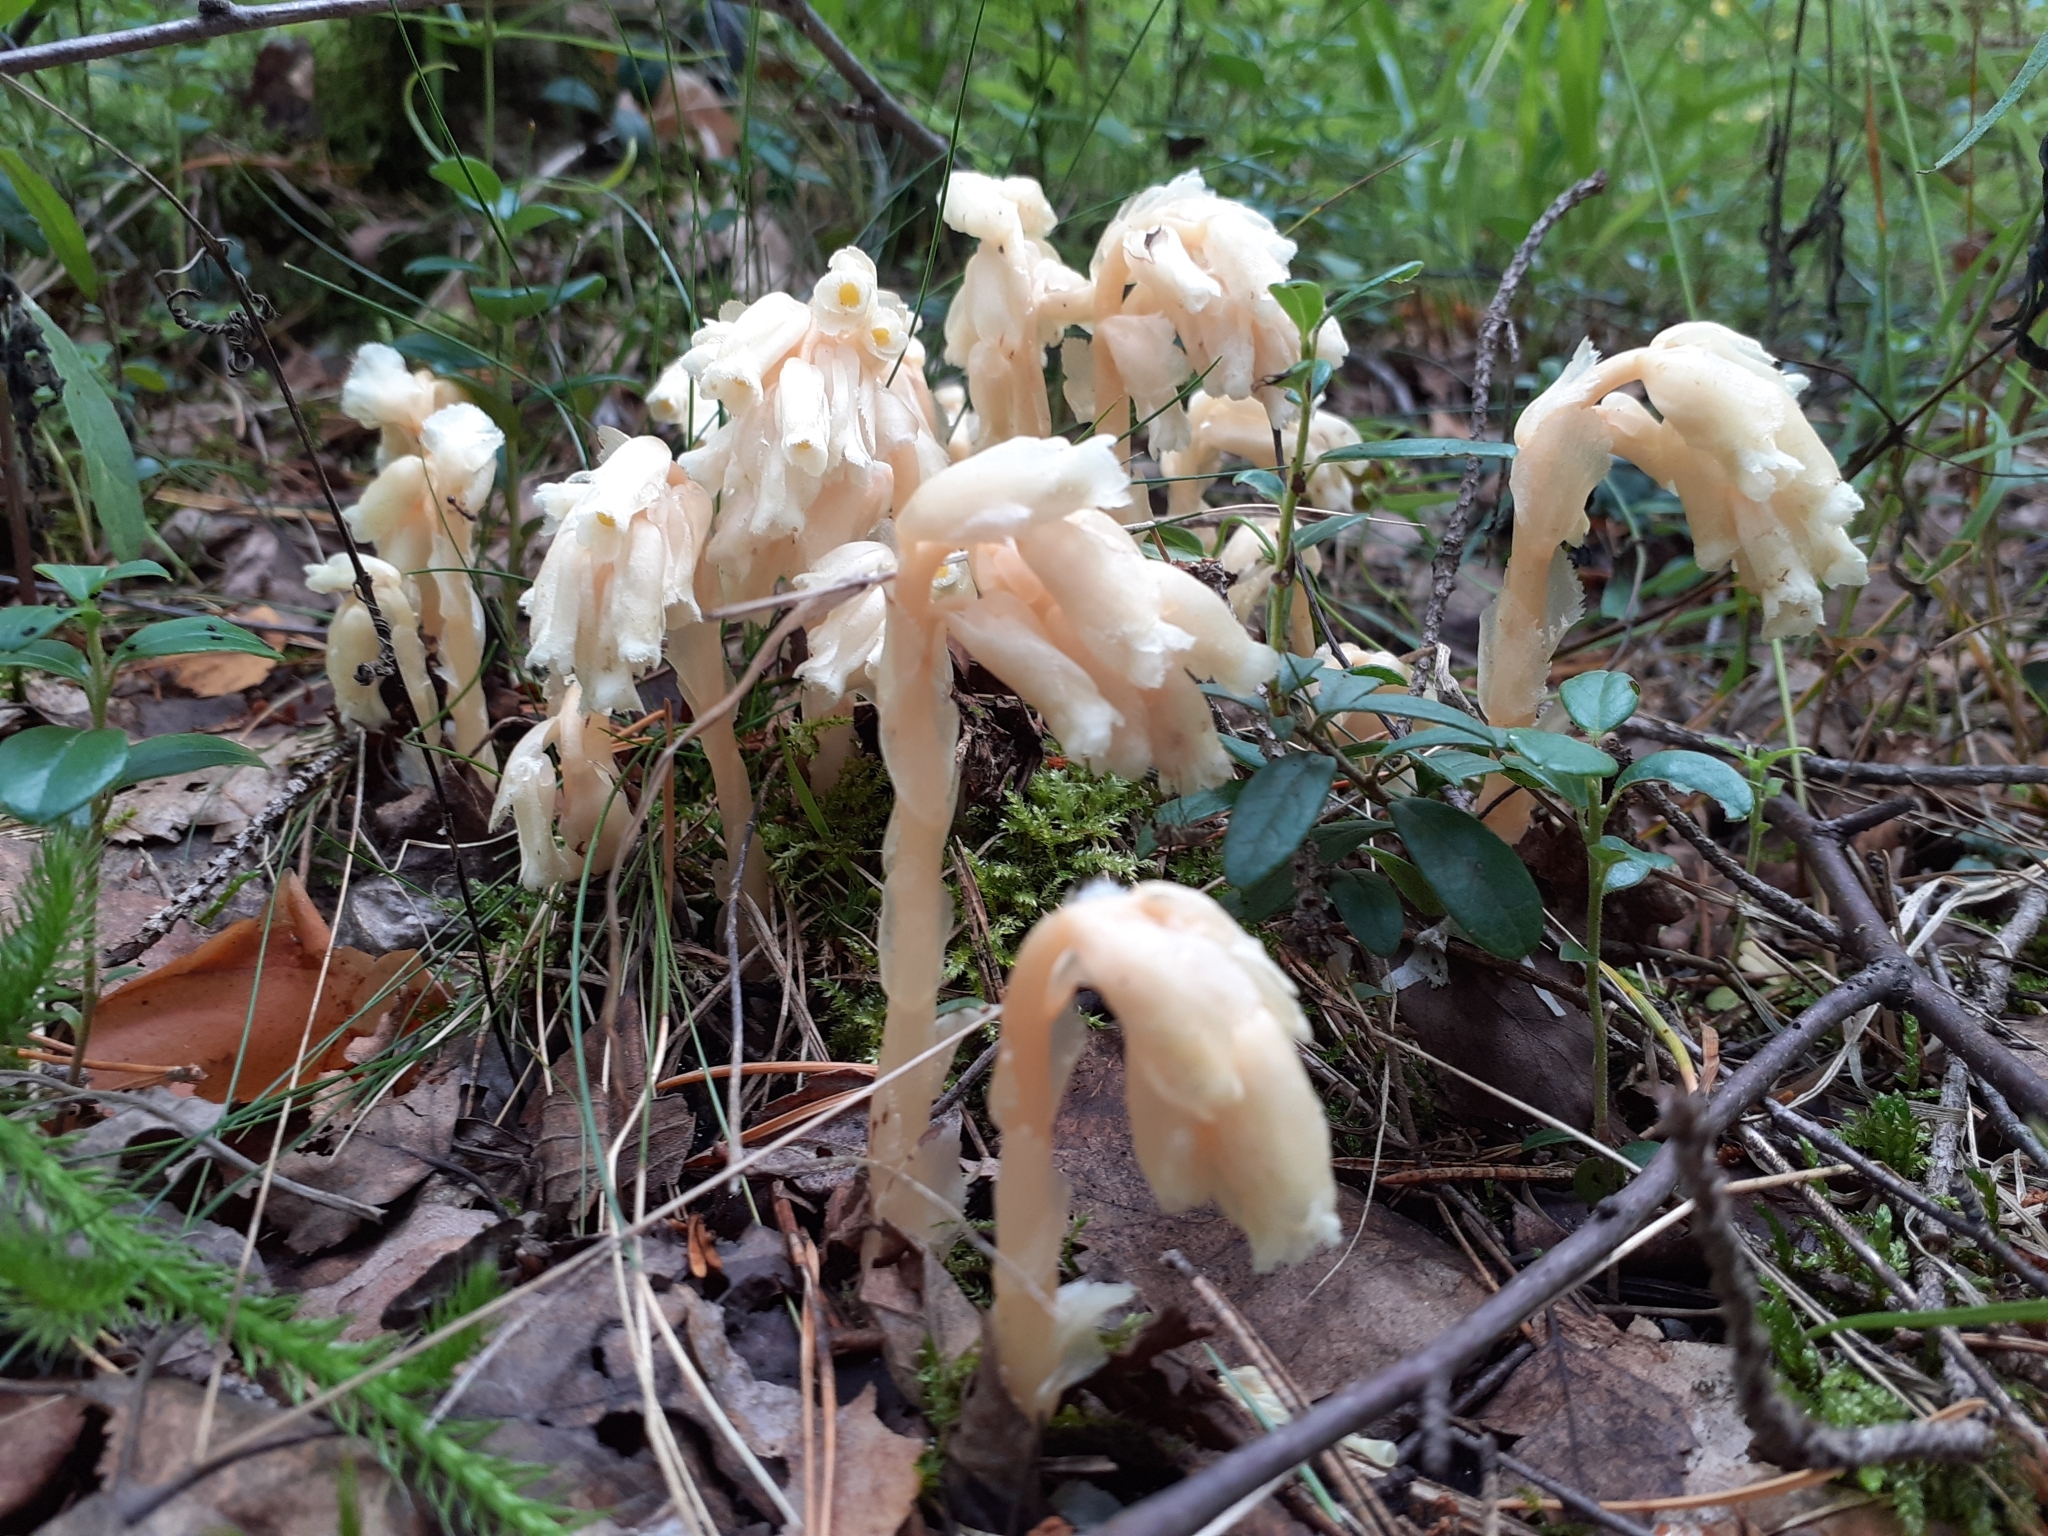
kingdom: Plantae
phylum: Tracheophyta
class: Magnoliopsida
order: Ericales
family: Ericaceae
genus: Hypopitys
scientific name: Hypopitys monotropa
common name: Yellow bird's-nest
